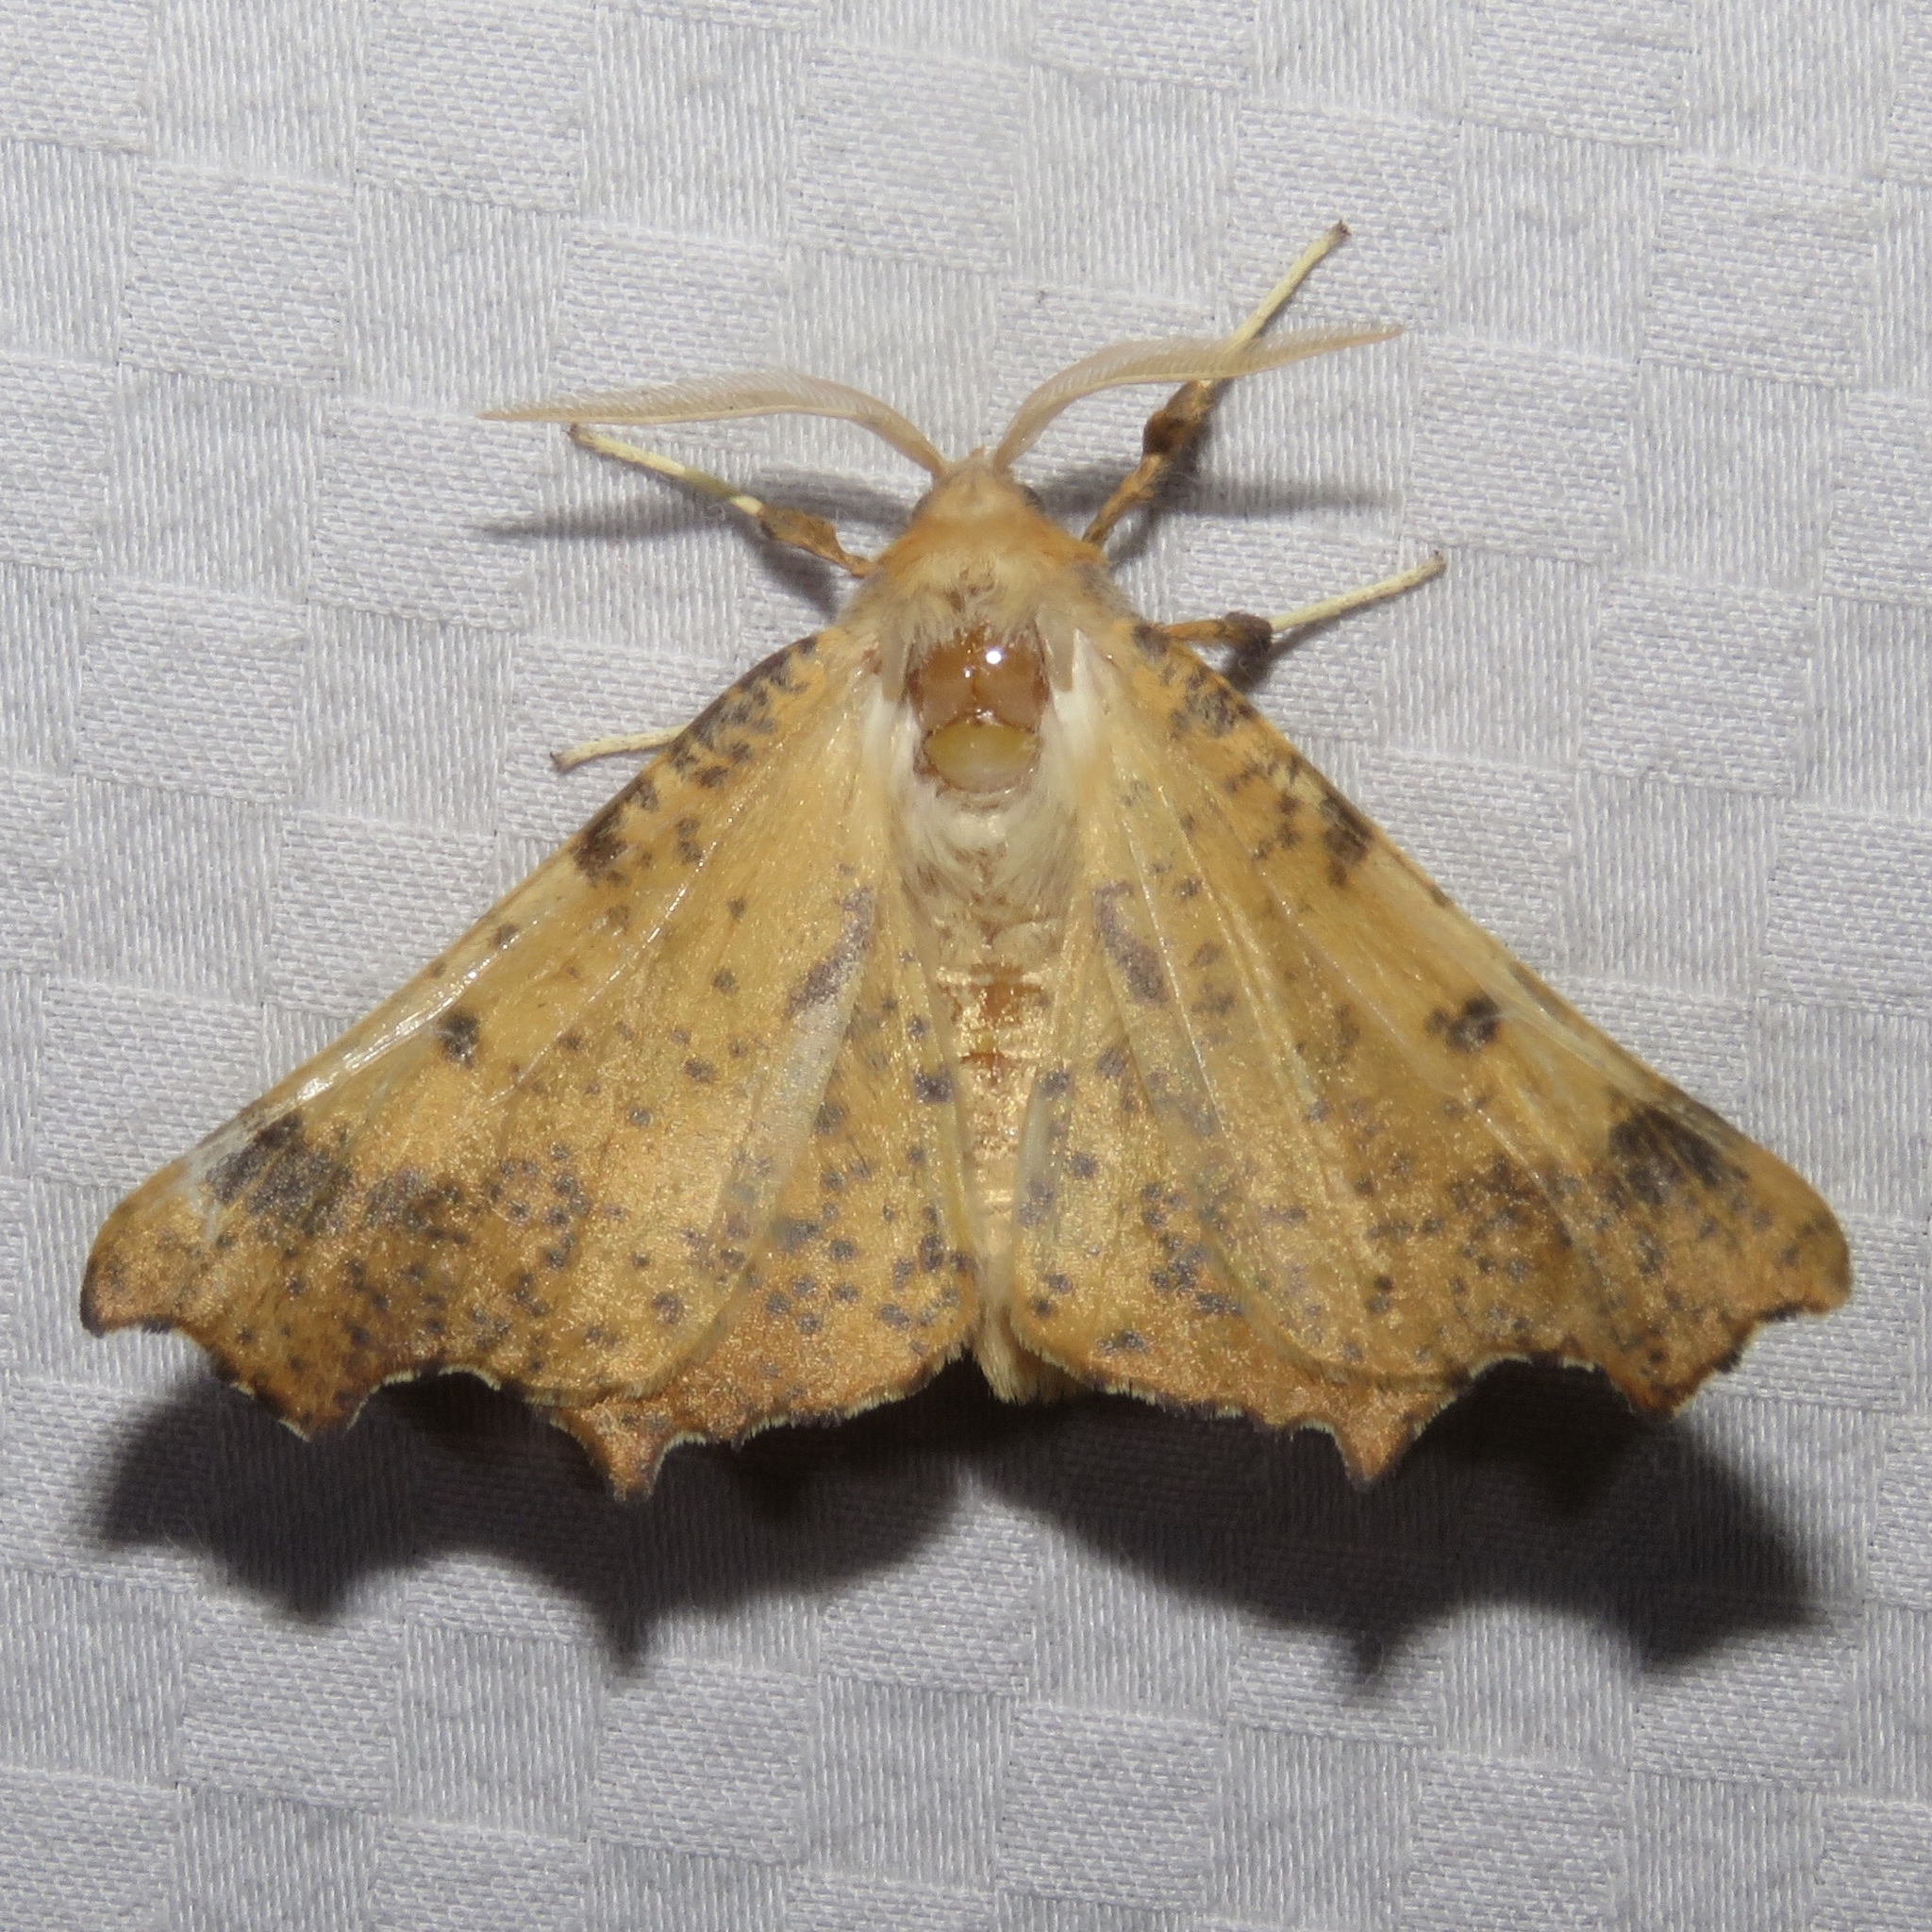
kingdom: Animalia
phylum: Arthropoda
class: Insecta
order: Lepidoptera
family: Geometridae
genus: Ennomos
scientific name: Ennomos magnaria
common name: Maple spanworm
